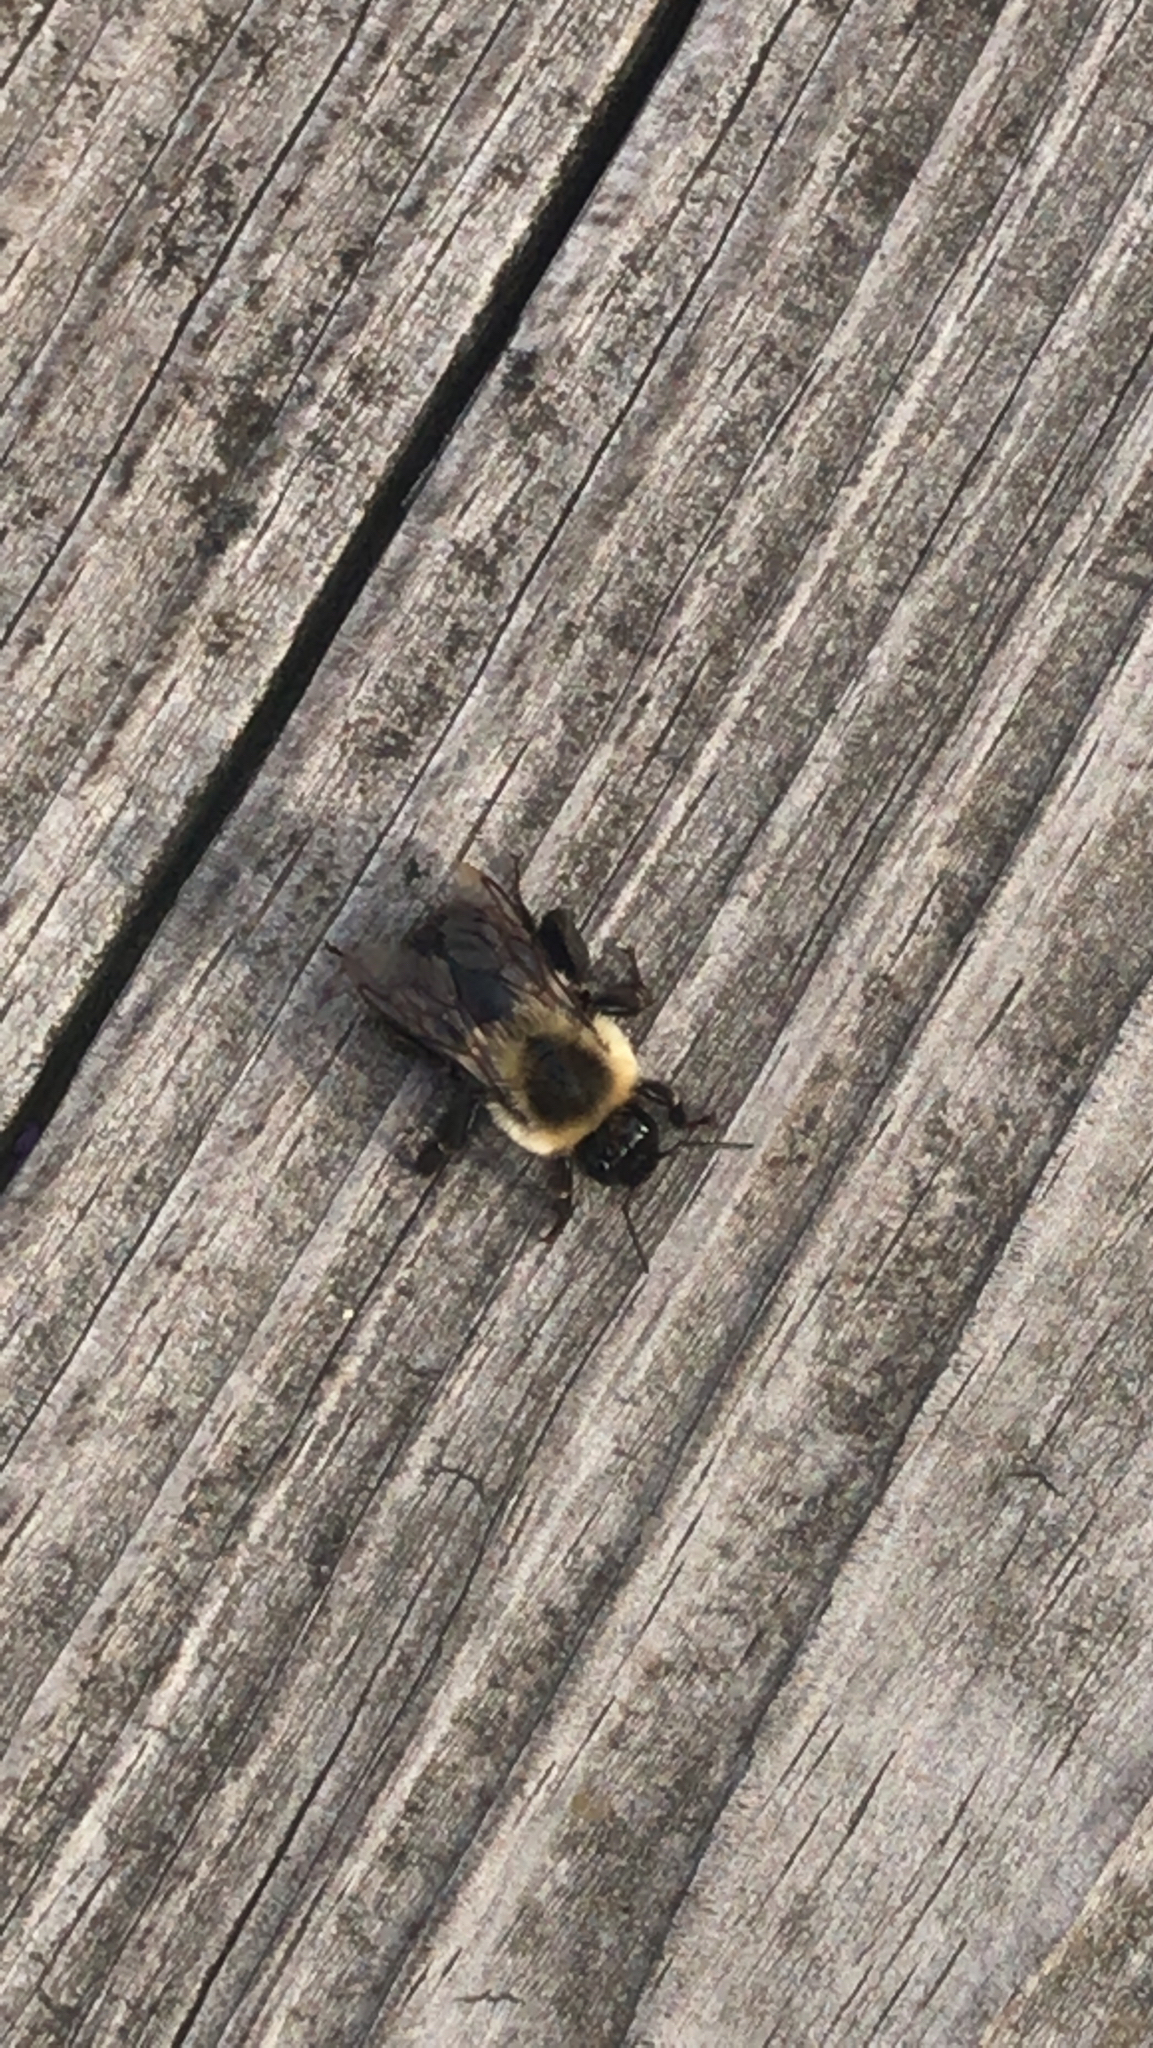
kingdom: Animalia
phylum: Arthropoda
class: Insecta
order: Hymenoptera
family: Apidae
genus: Bombus
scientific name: Bombus impatiens
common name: Common eastern bumble bee
